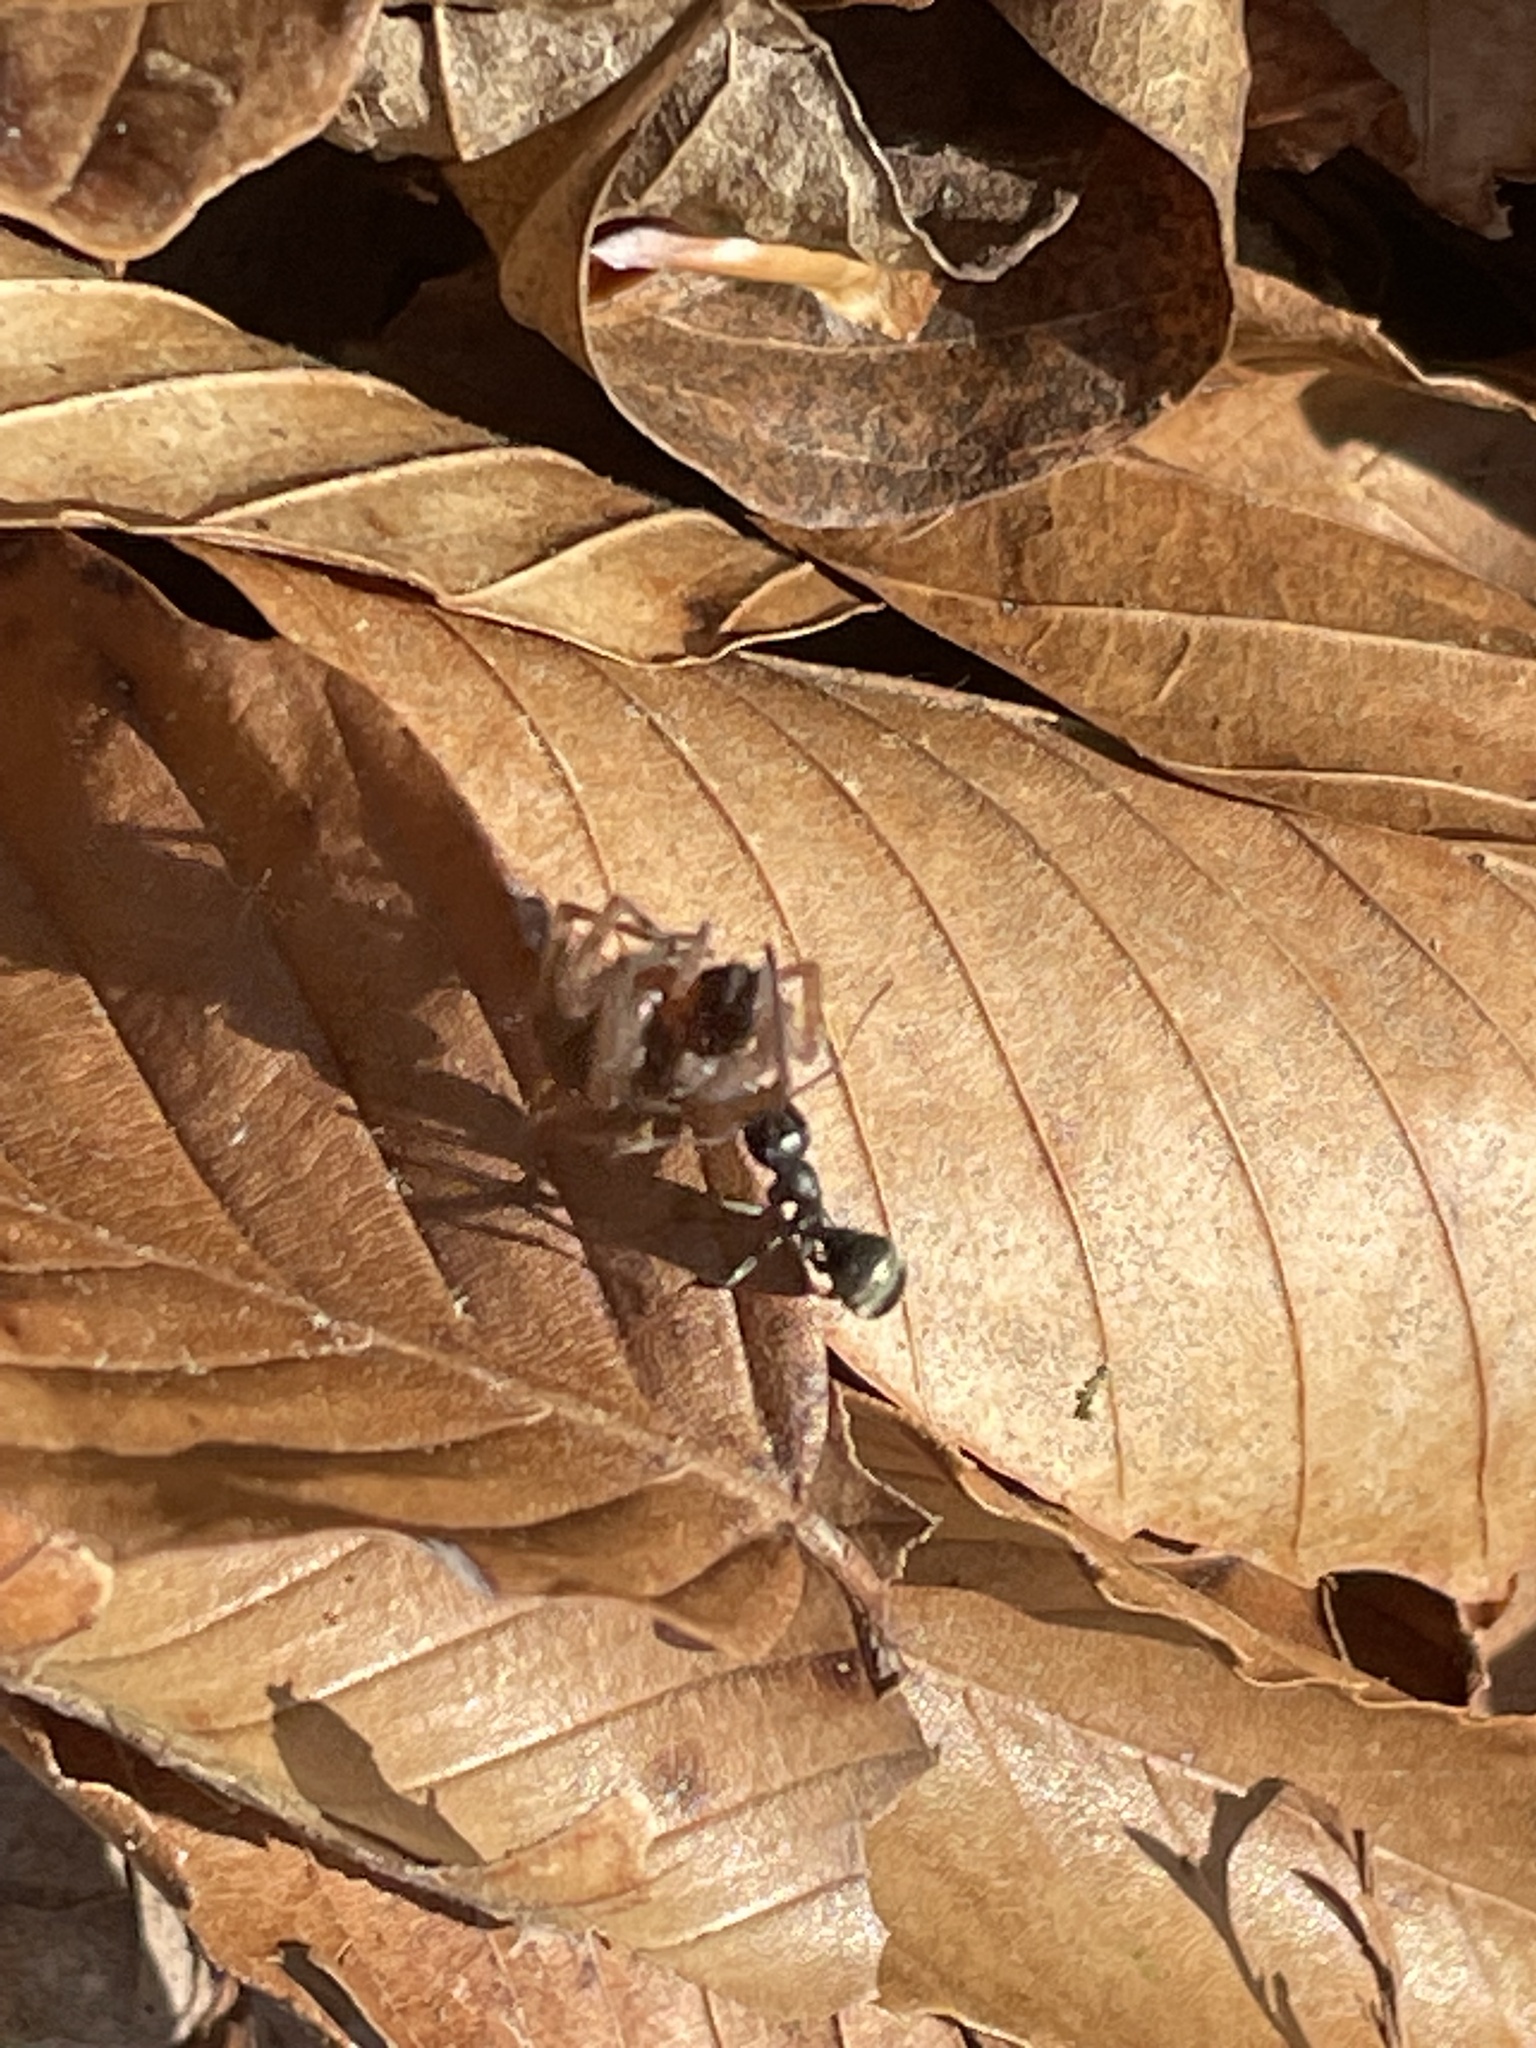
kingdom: Animalia
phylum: Arthropoda
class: Insecta
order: Hymenoptera
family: Formicidae
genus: Formica
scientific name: Formica
